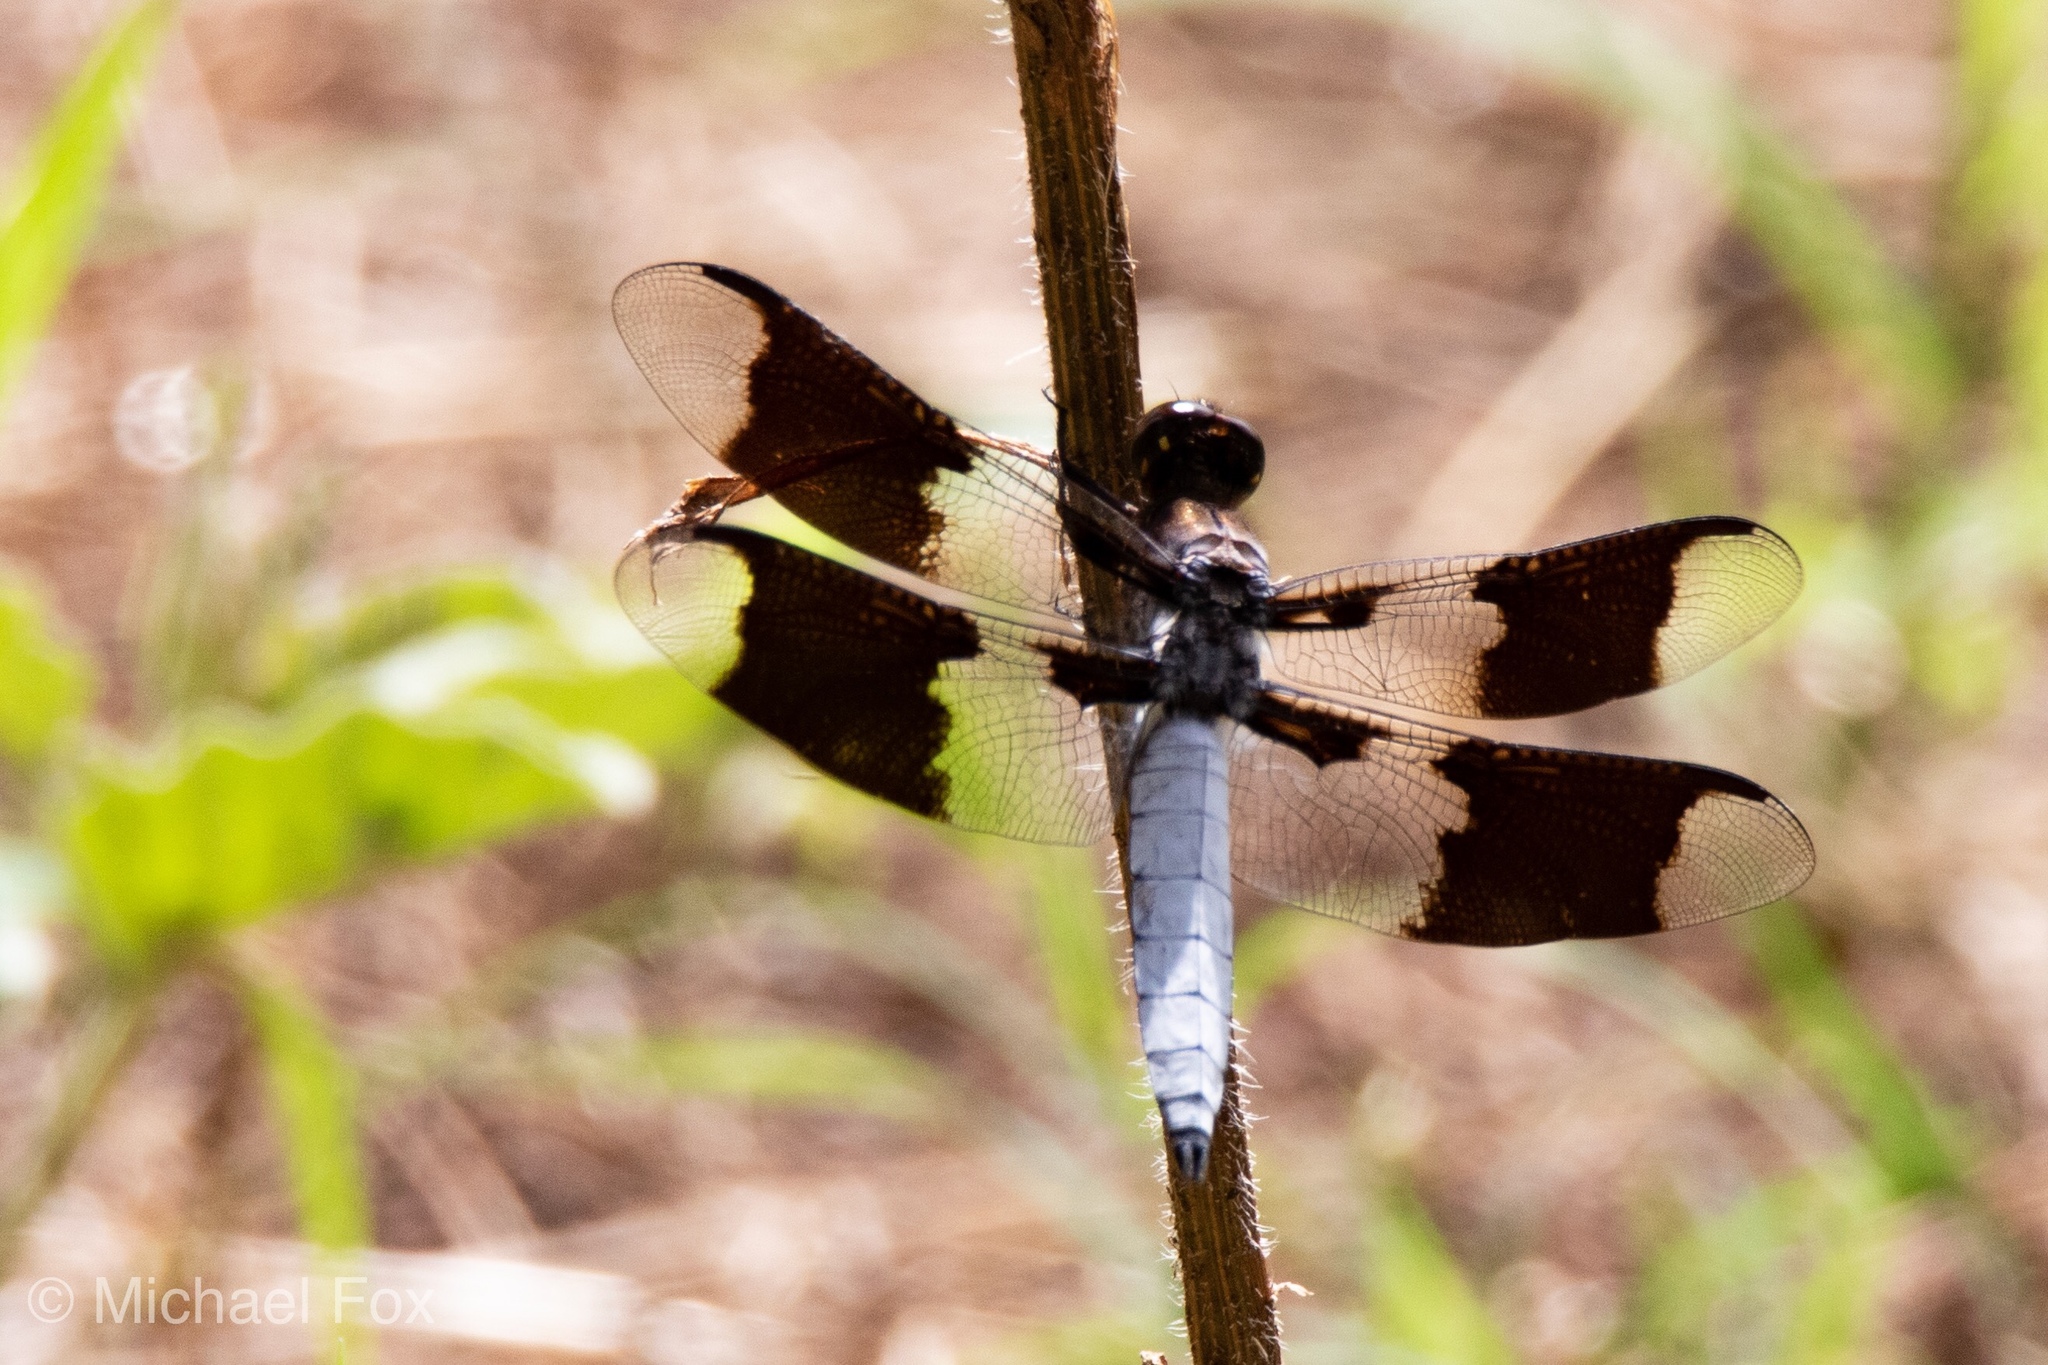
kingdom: Animalia
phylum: Arthropoda
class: Insecta
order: Odonata
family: Libellulidae
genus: Plathemis
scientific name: Plathemis lydia
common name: Common whitetail
